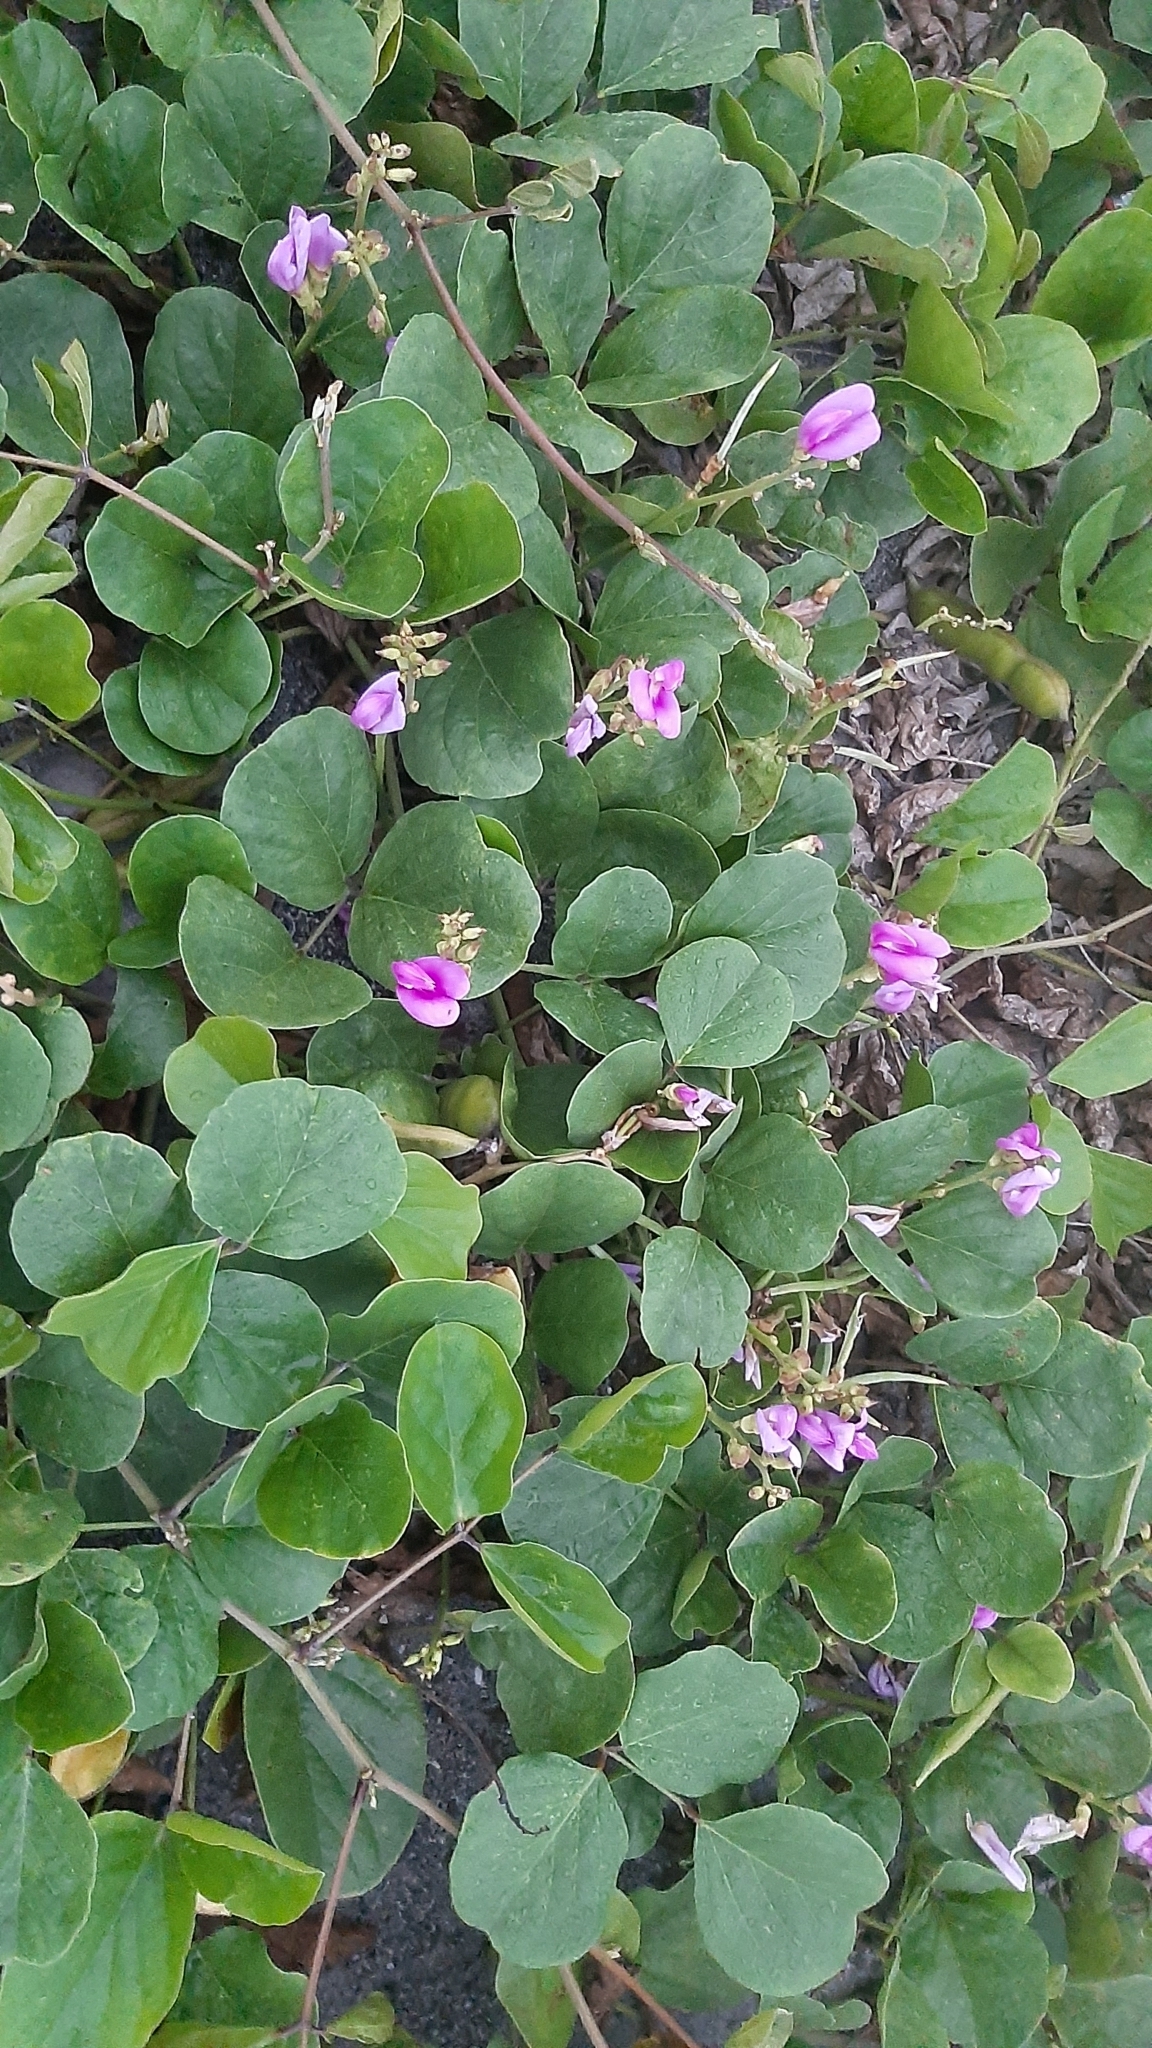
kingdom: Plantae
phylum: Tracheophyta
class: Magnoliopsida
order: Fabales
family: Fabaceae
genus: Canavalia
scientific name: Canavalia rosea
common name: Beach-bean
